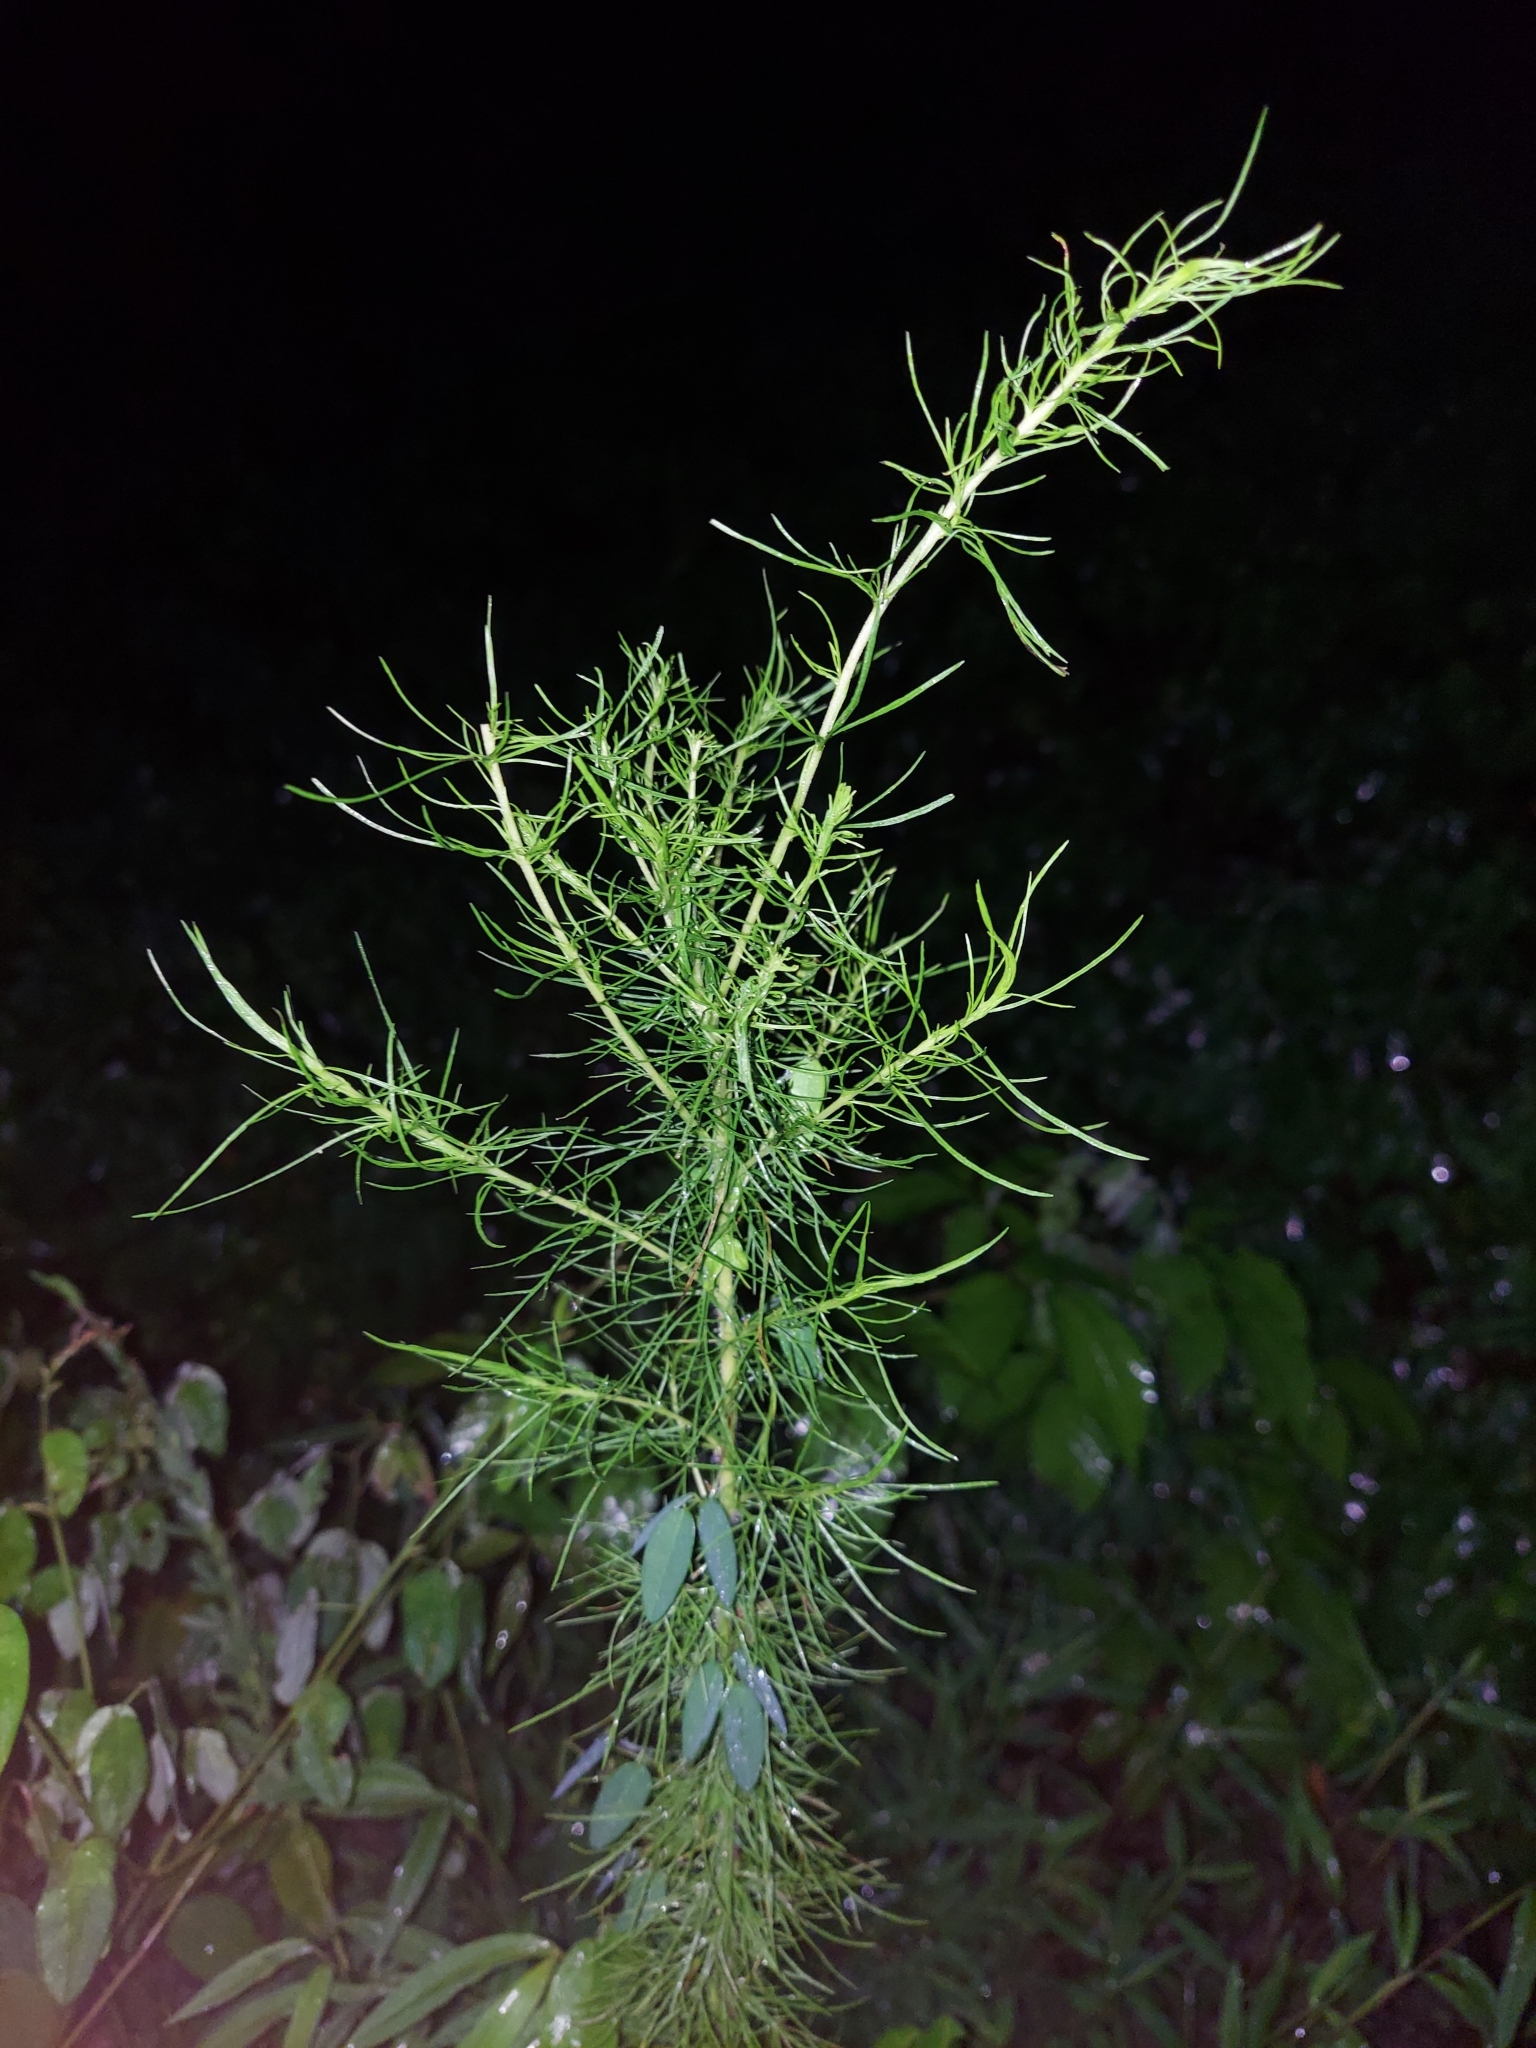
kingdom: Plantae
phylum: Tracheophyta
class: Magnoliopsida
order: Asterales
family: Asteraceae
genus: Eupatorium
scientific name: Eupatorium capillifolium
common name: Dog-fennel
